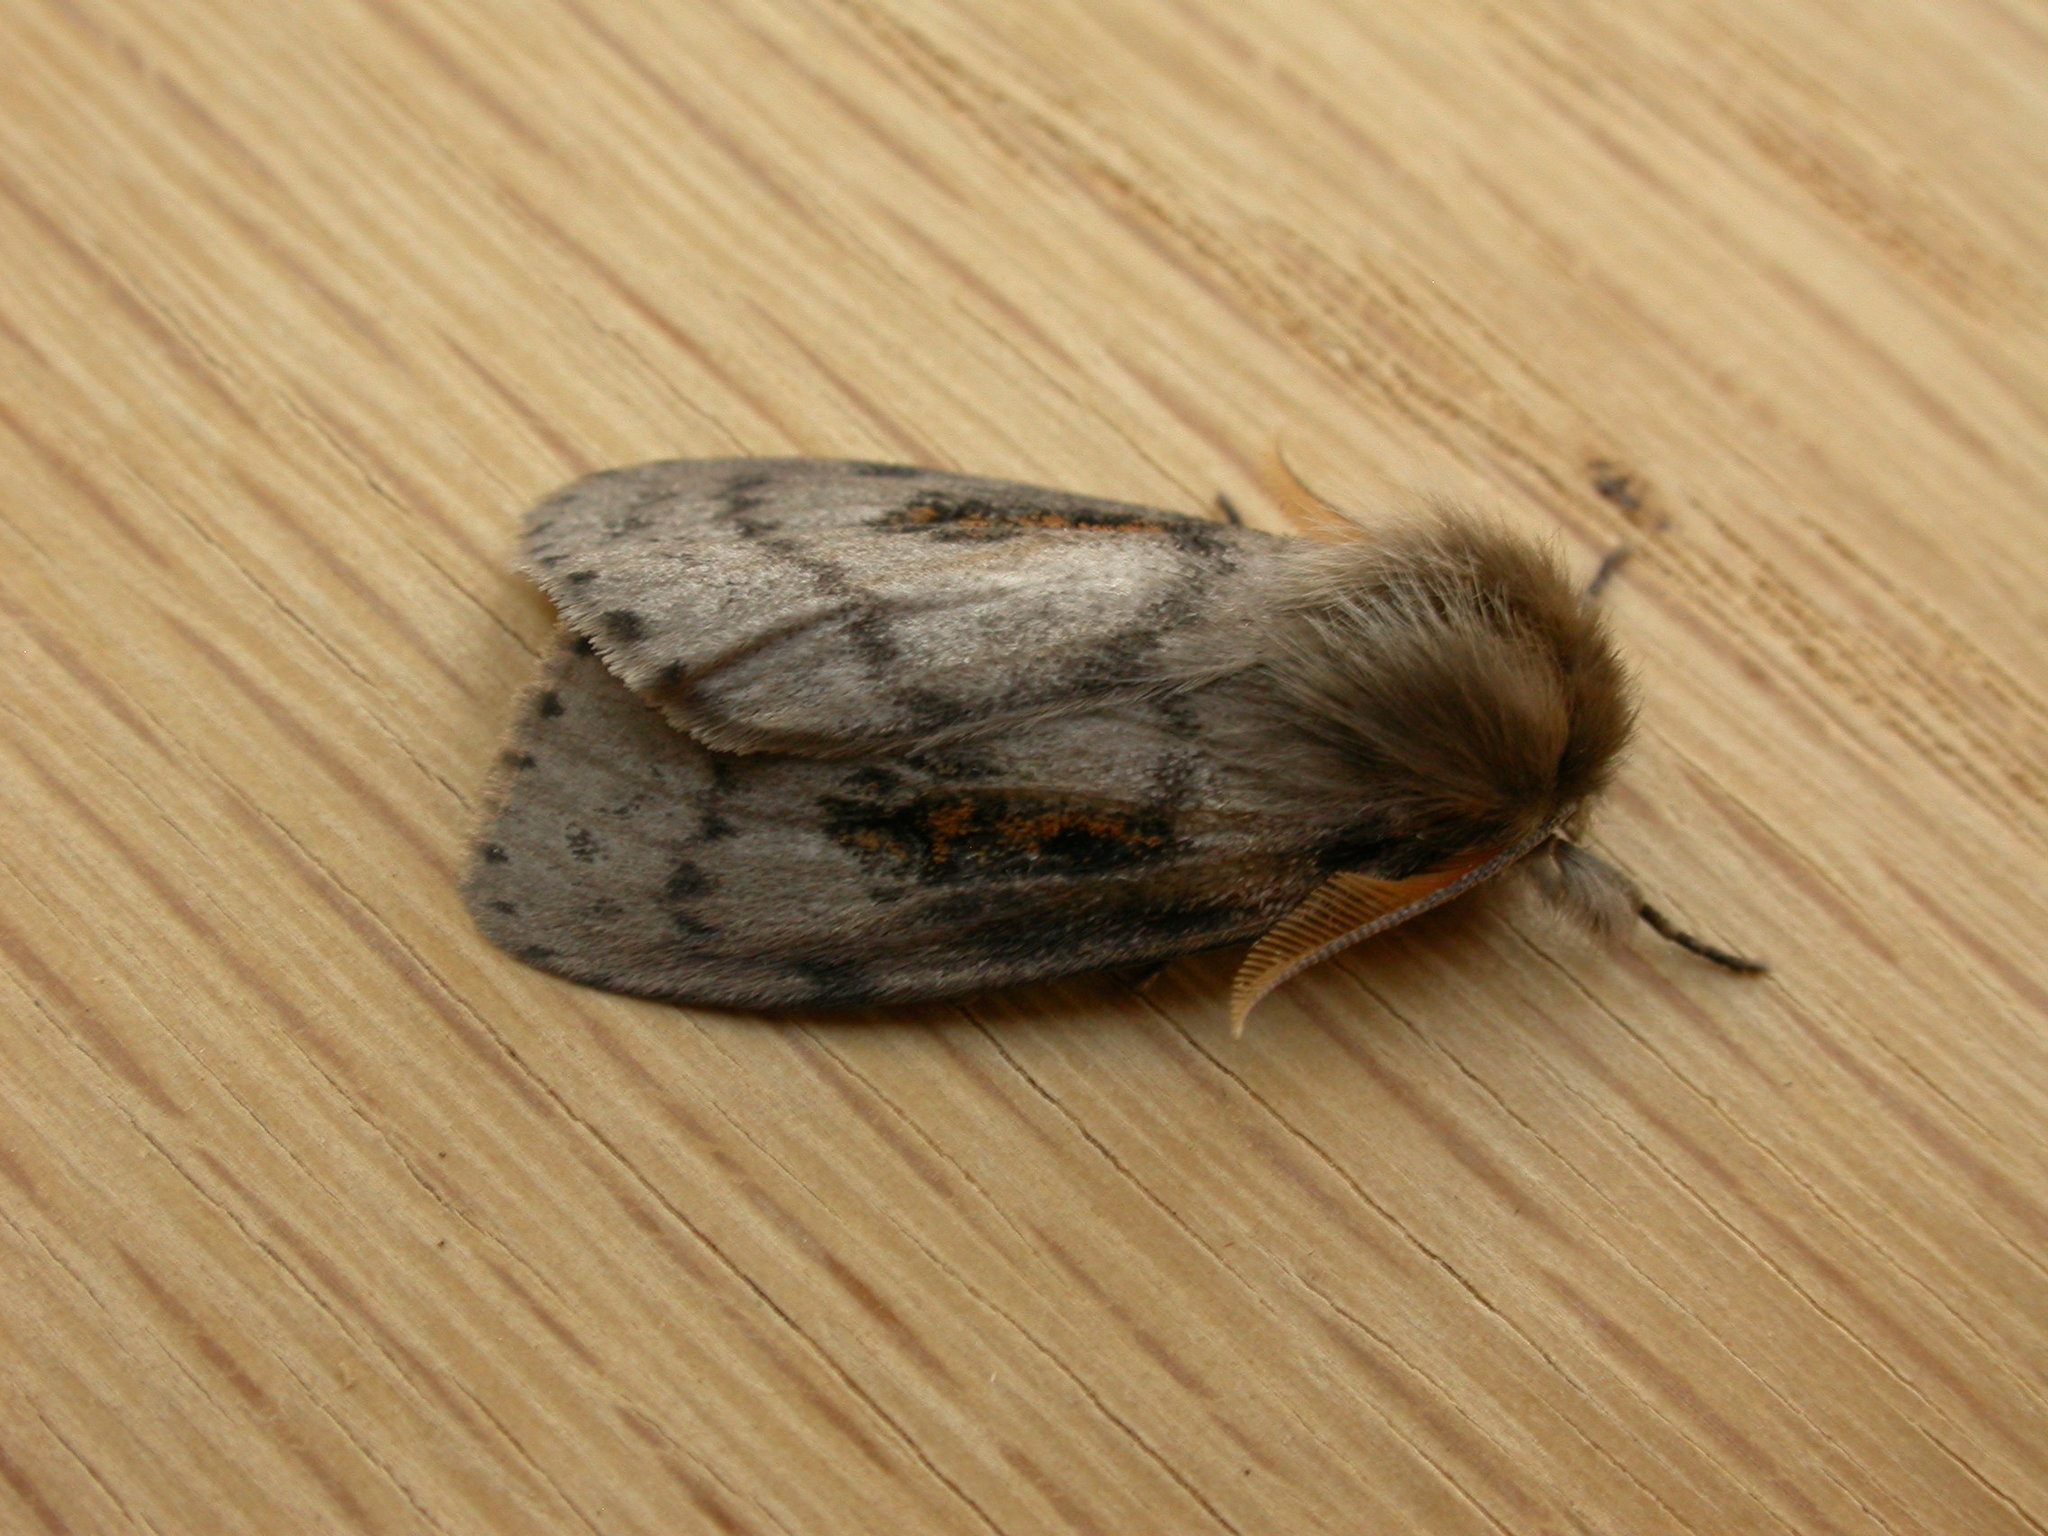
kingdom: Animalia
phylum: Arthropoda
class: Insecta
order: Lepidoptera
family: Erebidae
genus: Leptocneria
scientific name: Leptocneria reducta
